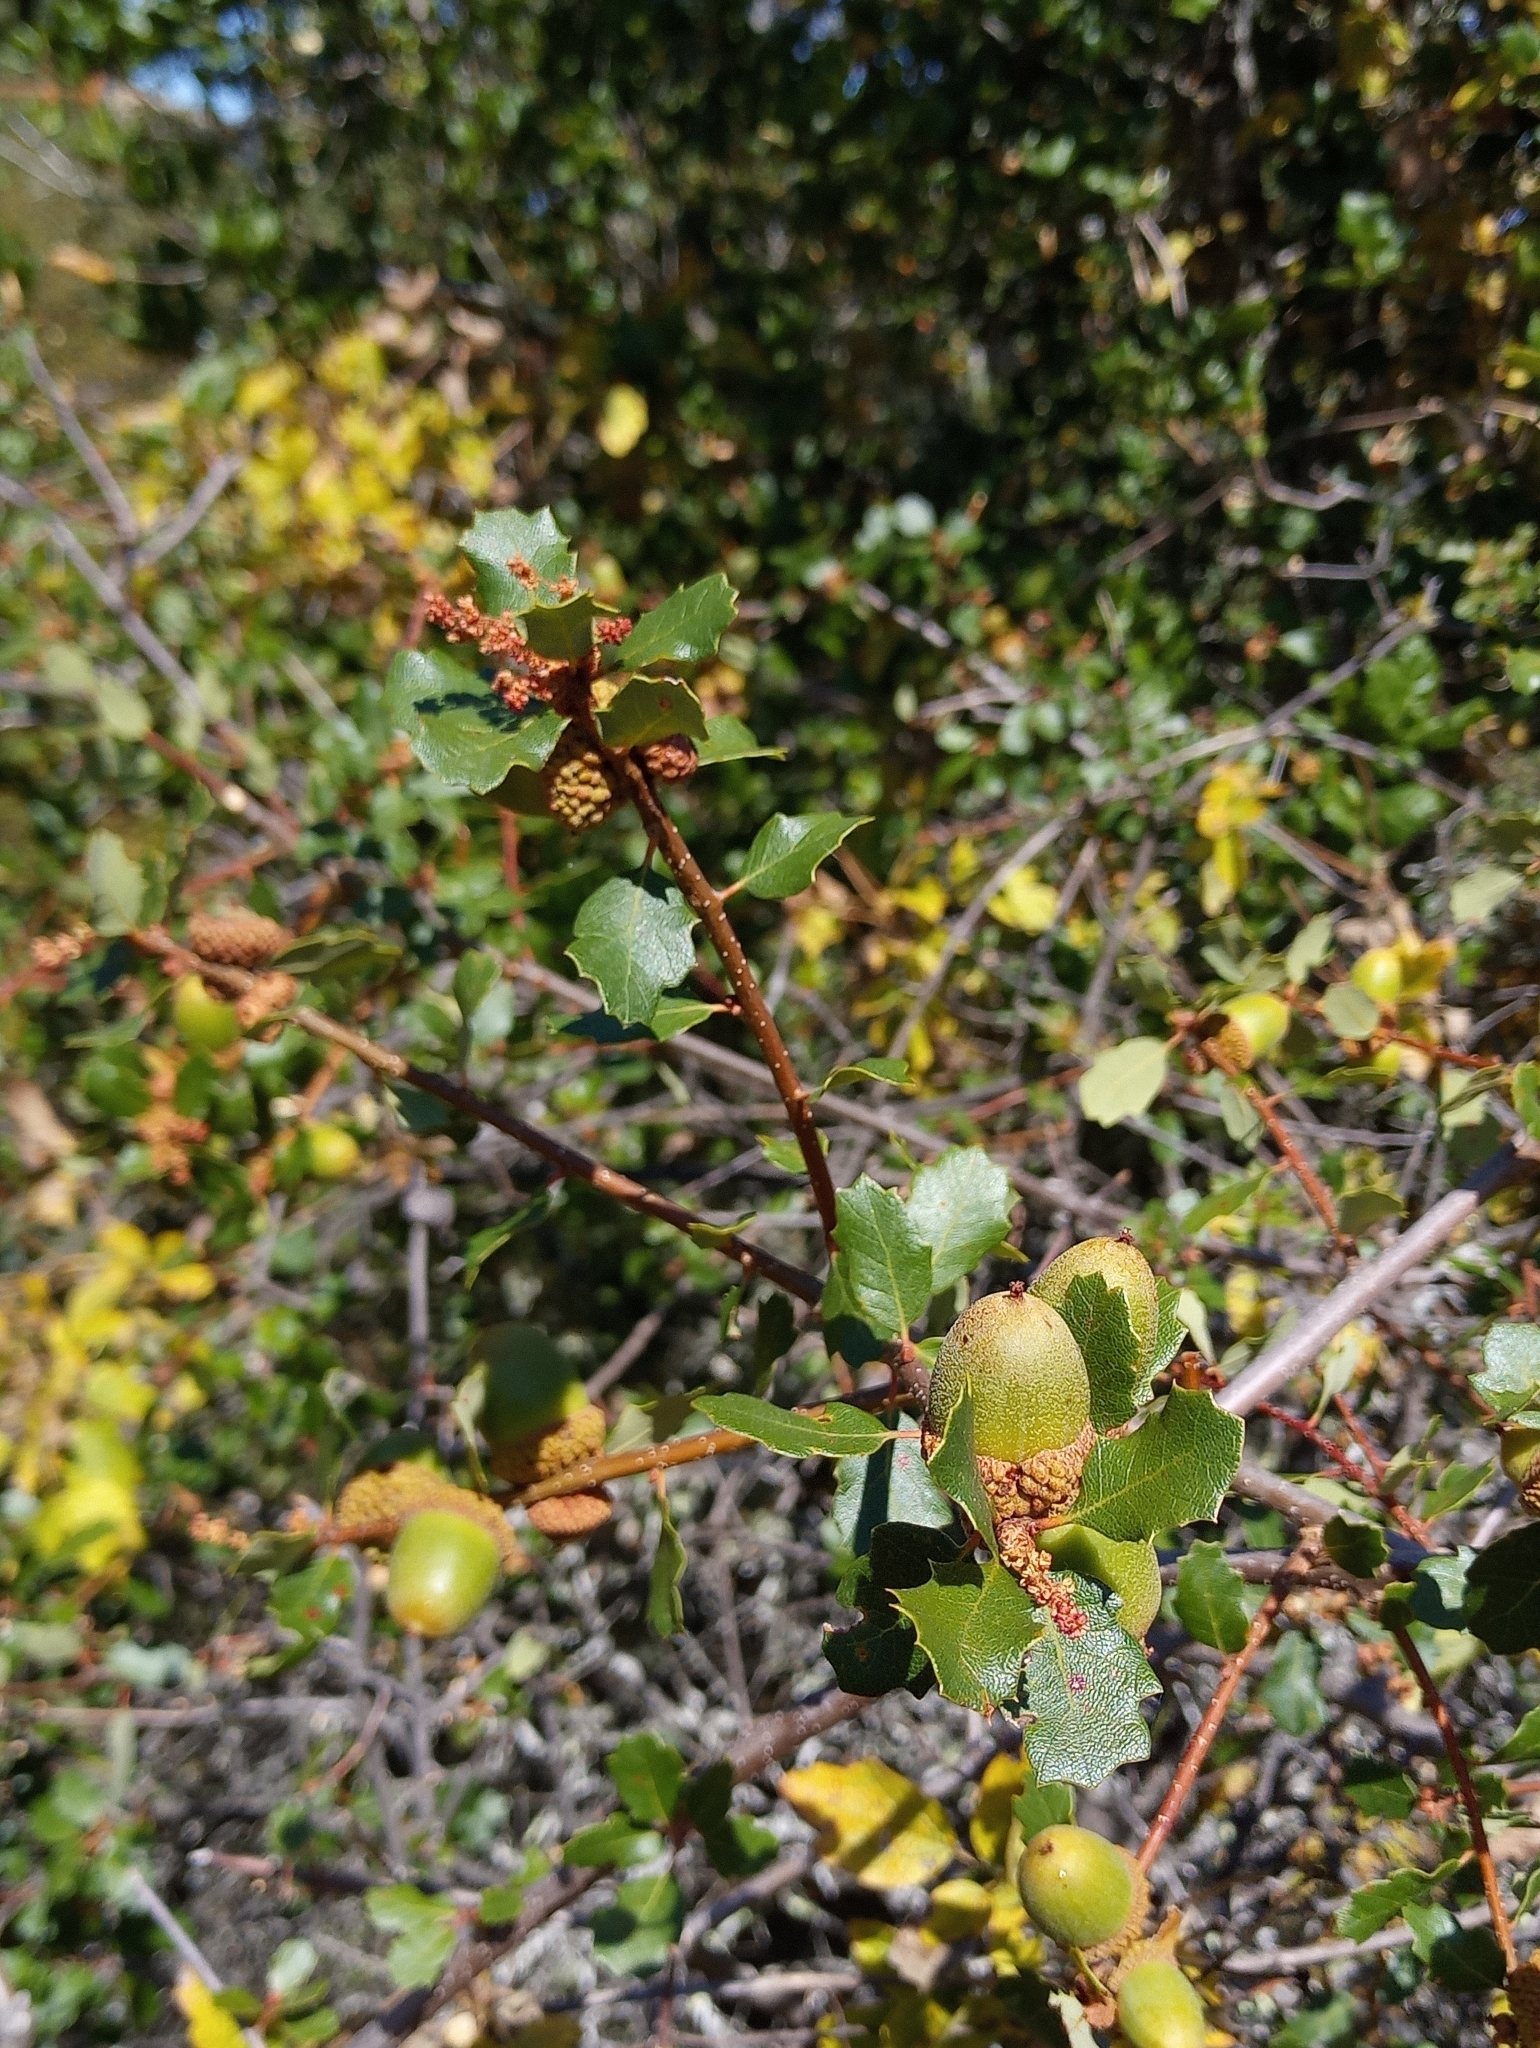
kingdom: Plantae
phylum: Tracheophyta
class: Magnoliopsida
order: Fagales
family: Fagaceae
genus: Quercus
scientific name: Quercus berberidifolia
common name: California scrub oak
